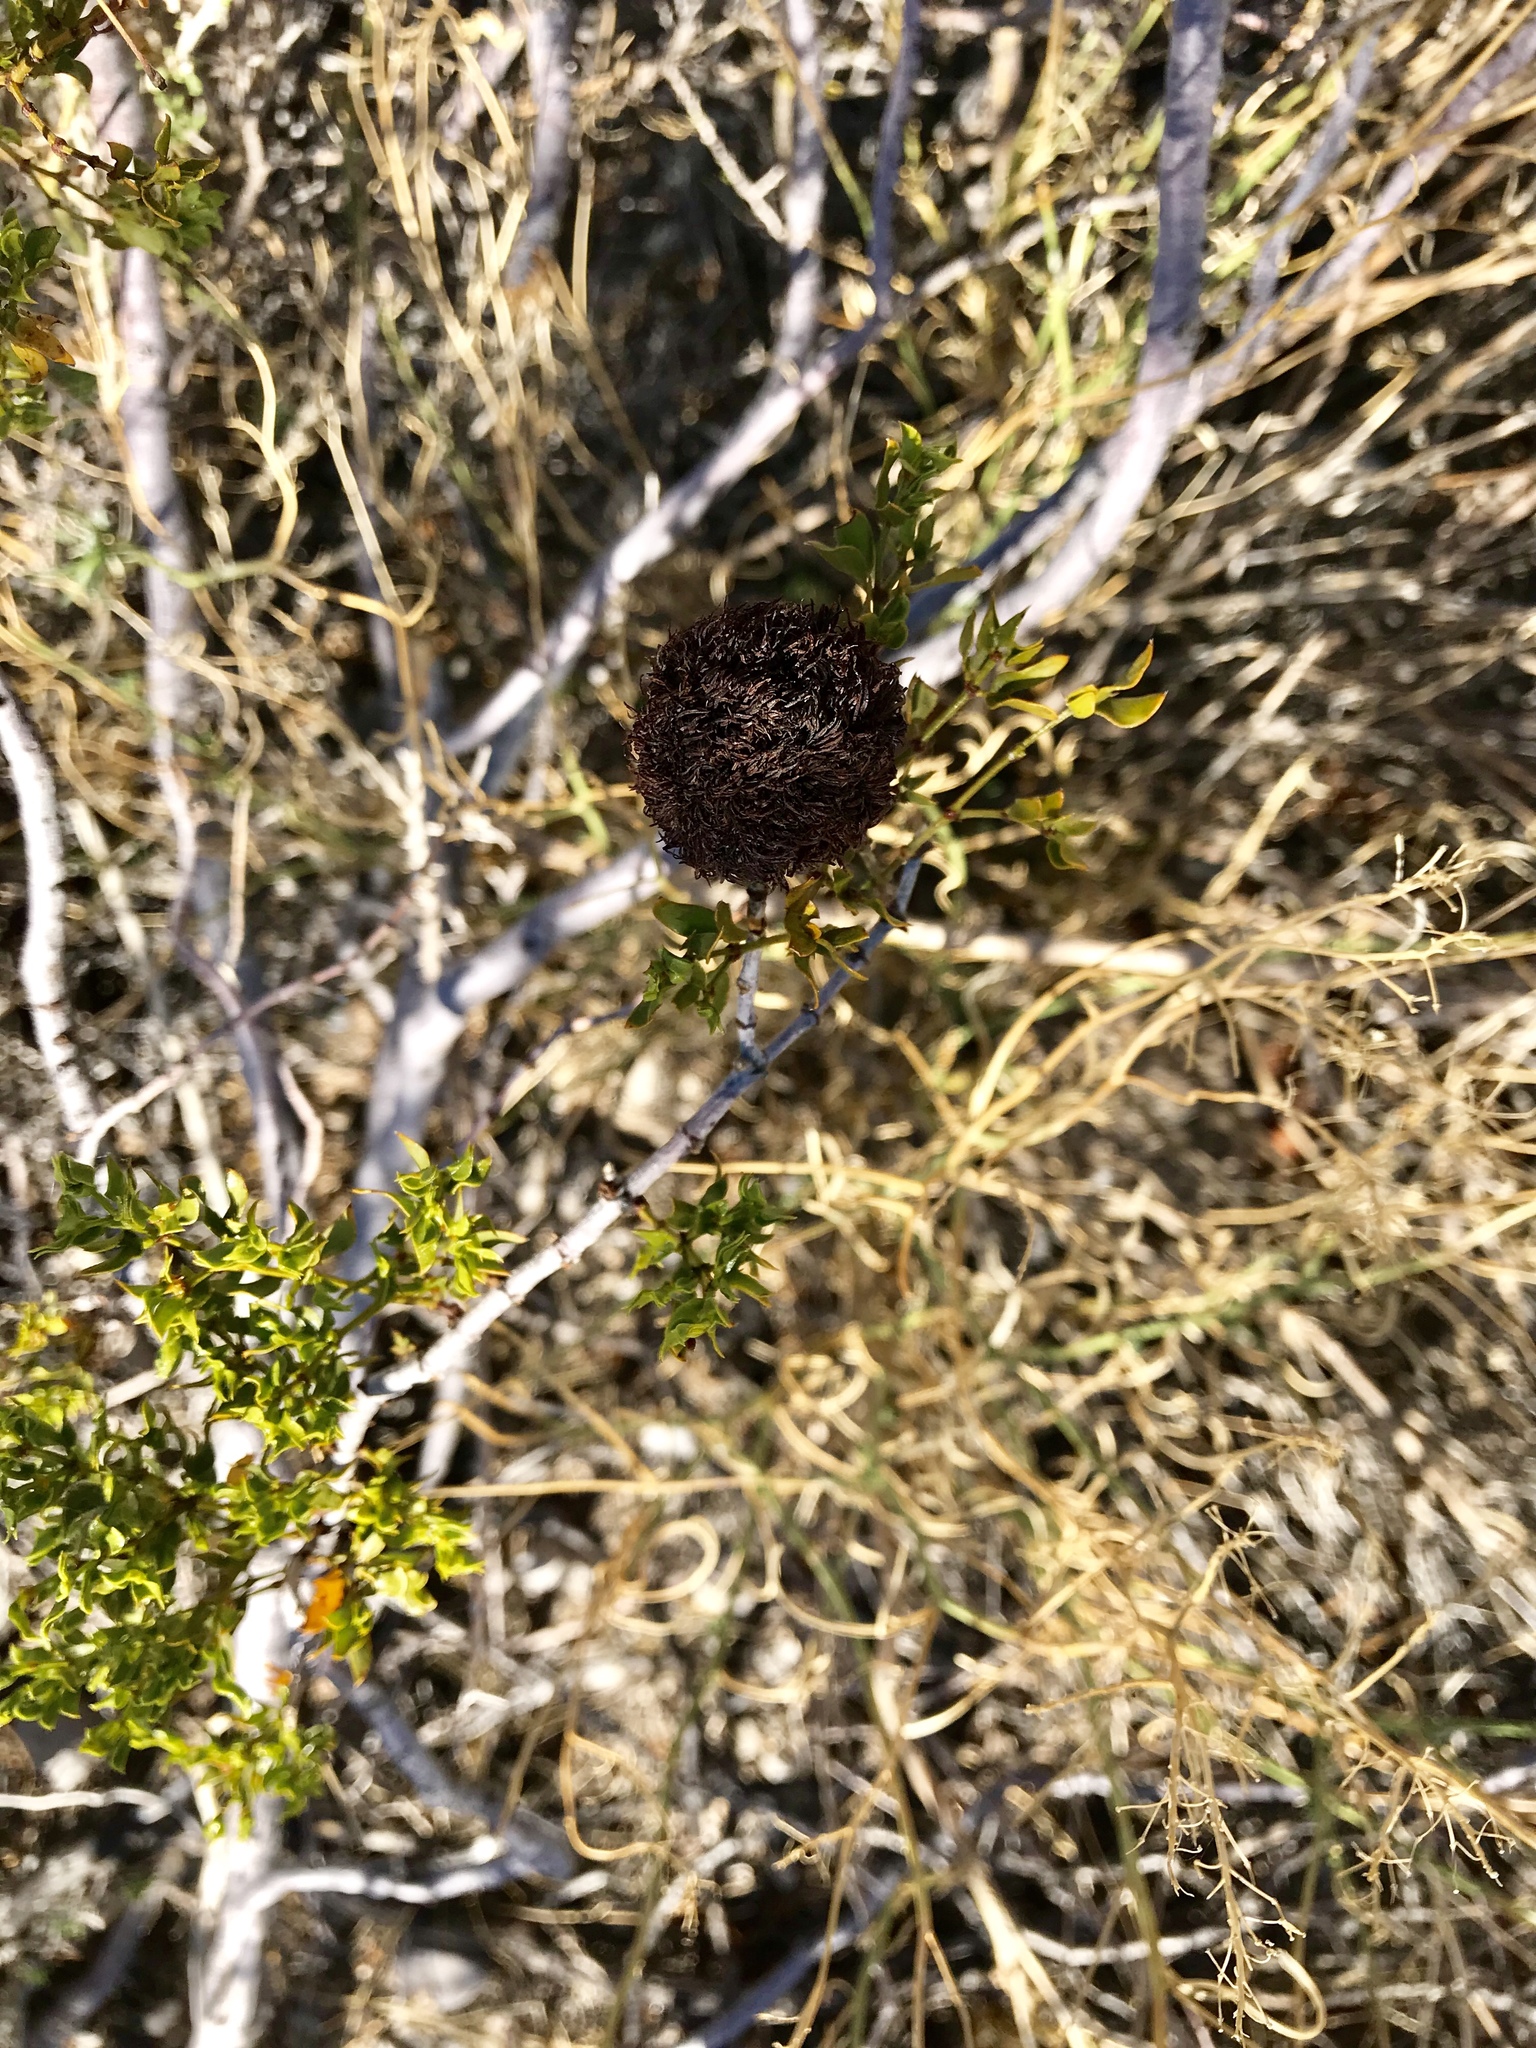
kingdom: Animalia
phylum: Arthropoda
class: Insecta
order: Diptera
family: Cecidomyiidae
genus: Asphondylia
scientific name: Asphondylia auripila
